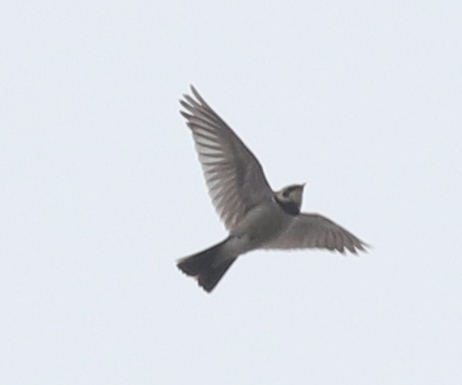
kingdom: Animalia
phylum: Chordata
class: Aves
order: Passeriformes
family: Alaudidae
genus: Eremophila
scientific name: Eremophila alpestris
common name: Horned lark
